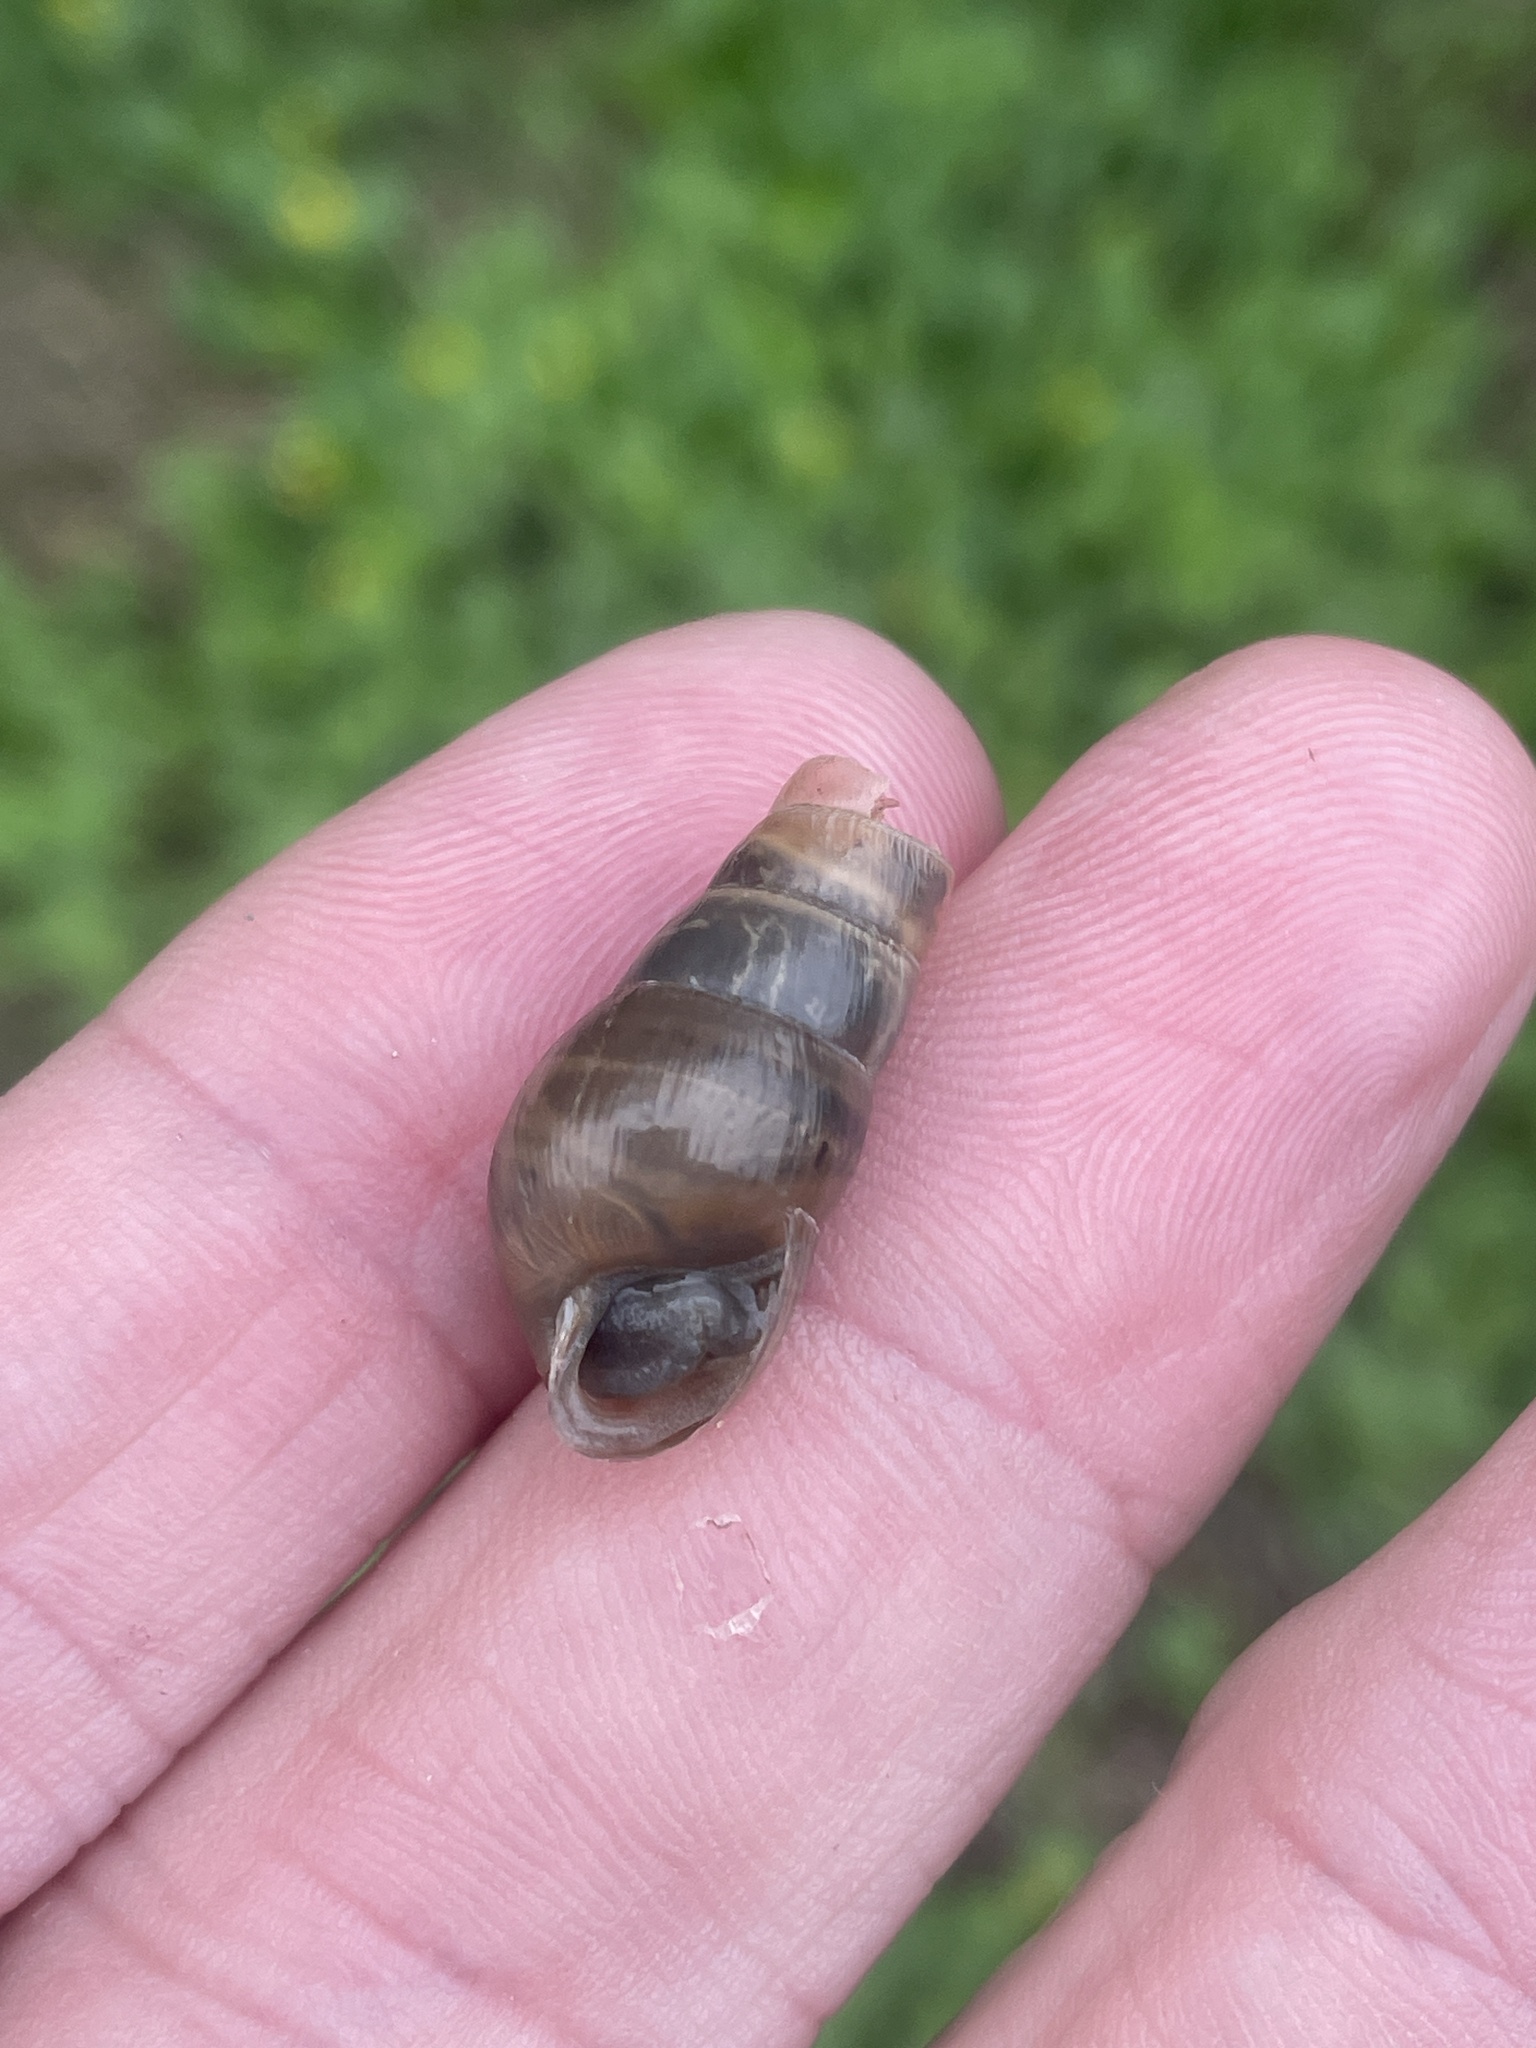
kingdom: Animalia
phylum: Mollusca
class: Gastropoda
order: Stylommatophora
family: Achatinidae
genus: Rumina
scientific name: Rumina decollata
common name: Decollate snail
